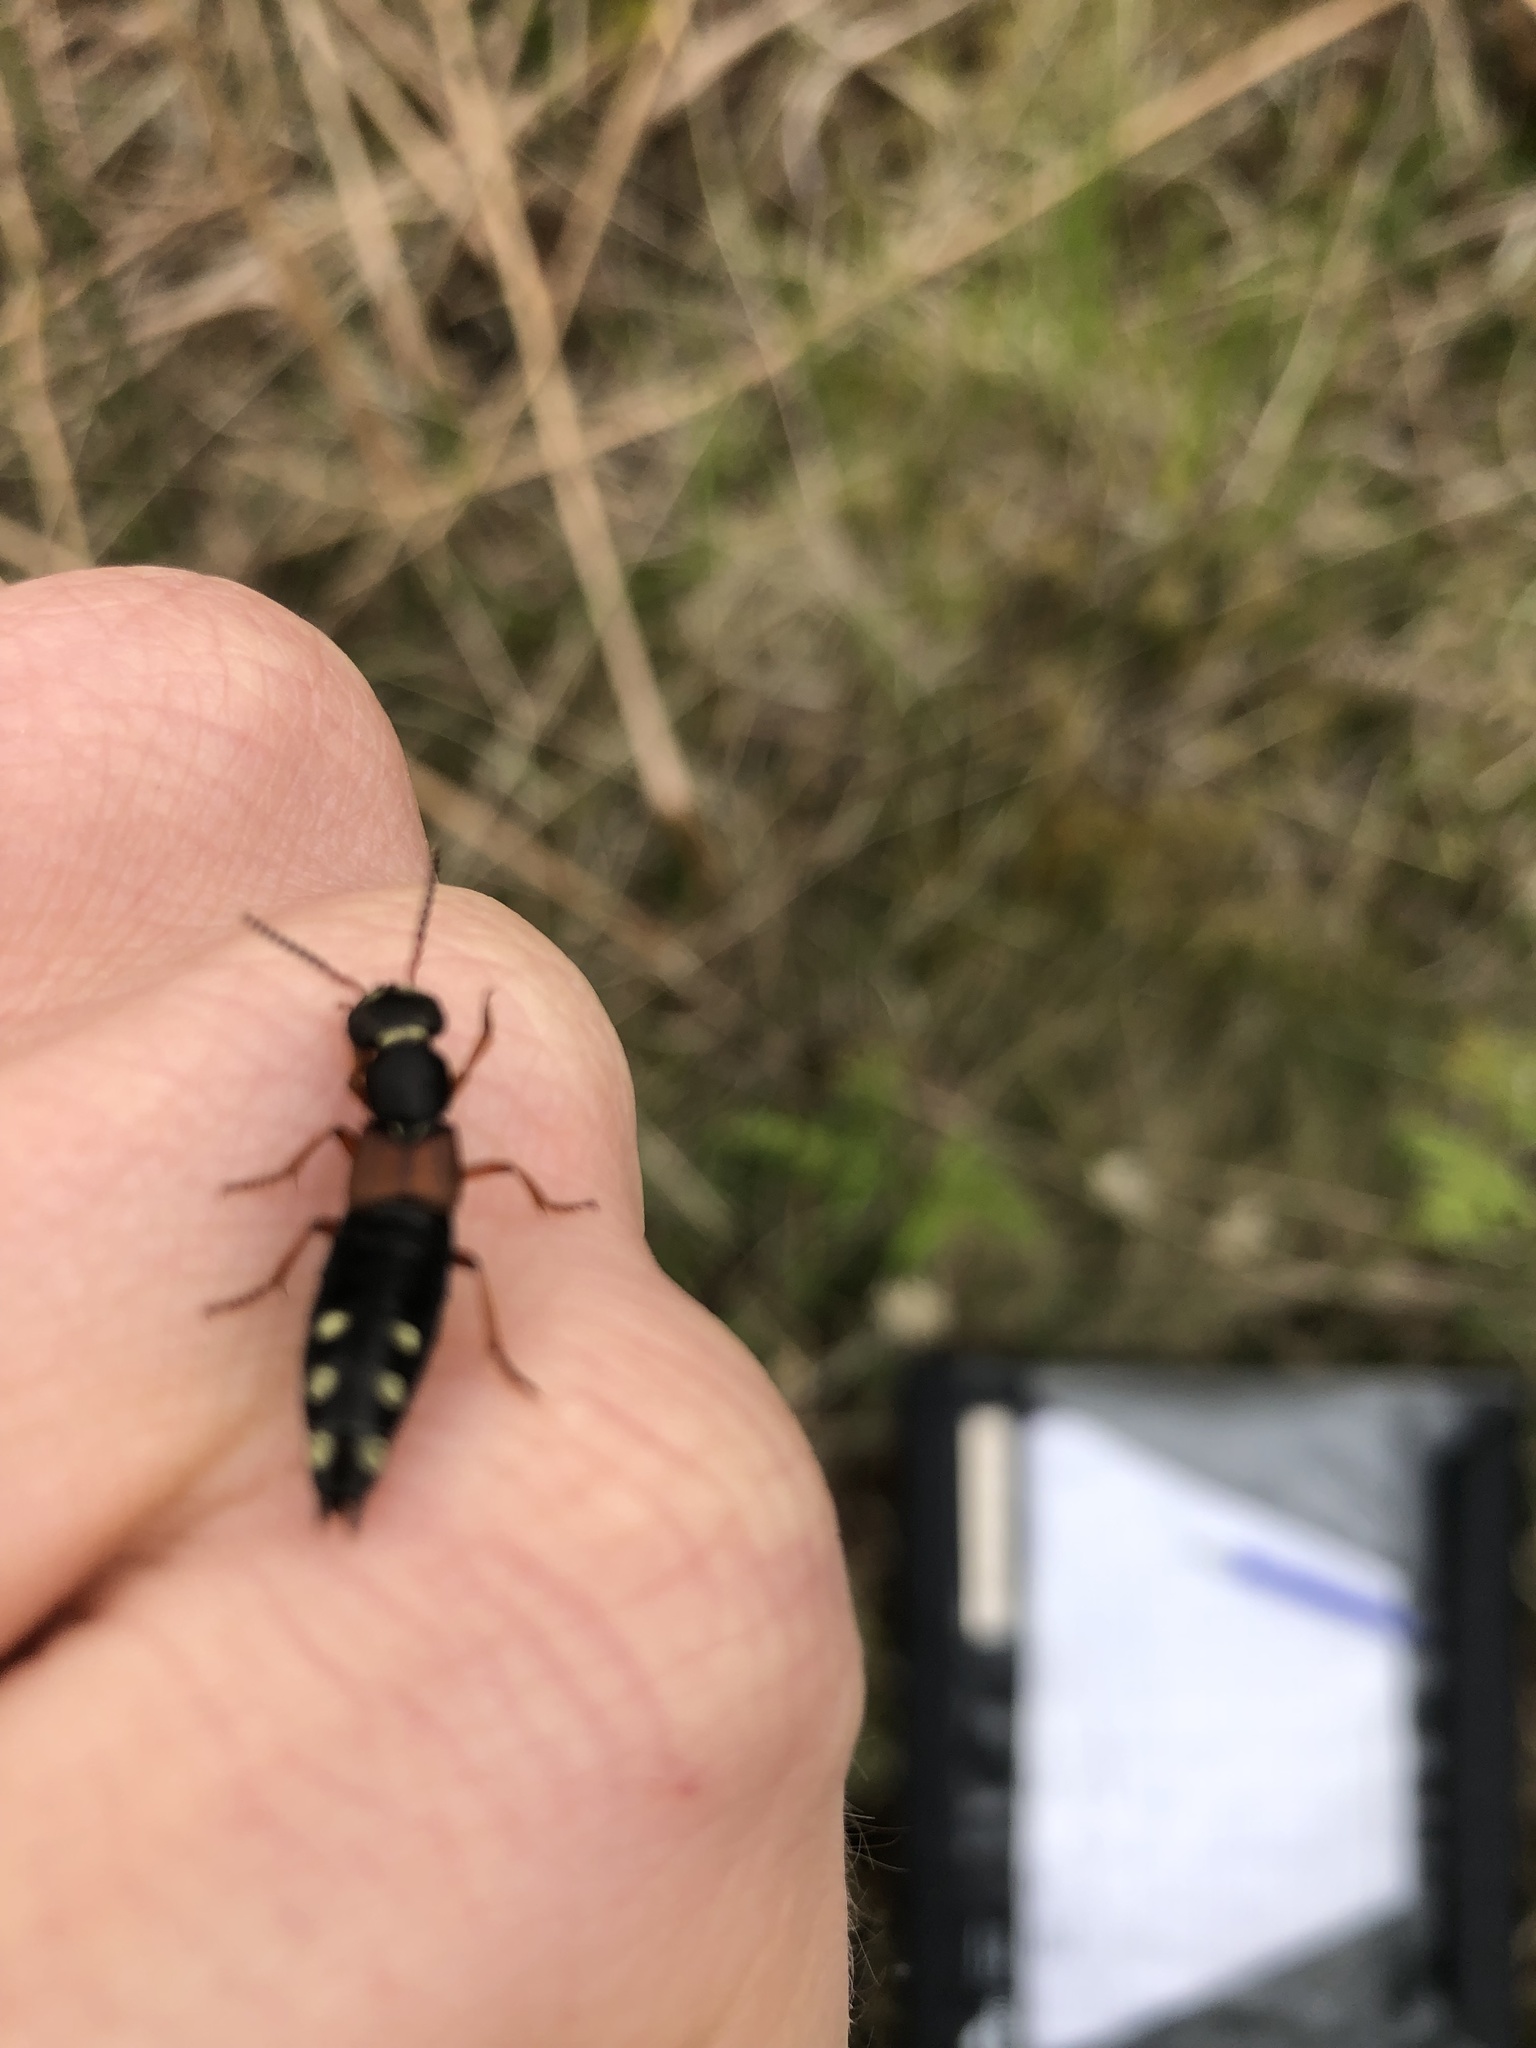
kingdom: Animalia
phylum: Arthropoda
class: Insecta
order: Coleoptera
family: Staphylinidae
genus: Staphylinus
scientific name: Staphylinus erythropterus
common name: Staph beetle
